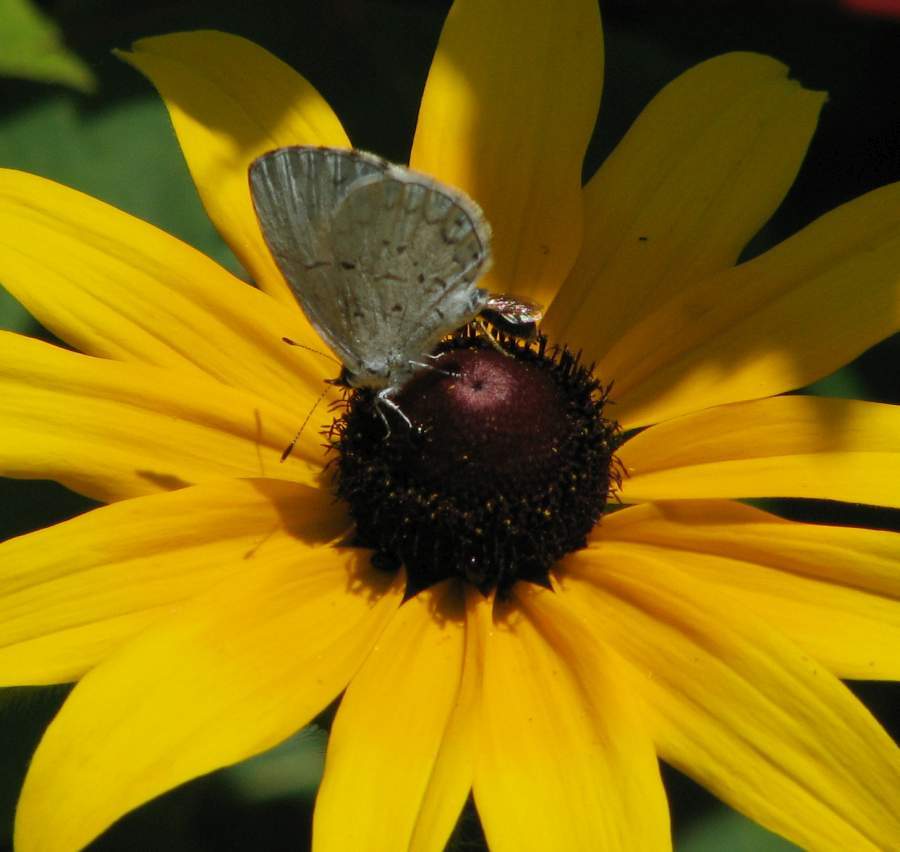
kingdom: Animalia
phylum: Arthropoda
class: Insecta
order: Lepidoptera
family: Lycaenidae
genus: Celastrina
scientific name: Celastrina lucia
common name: Lucia azure
